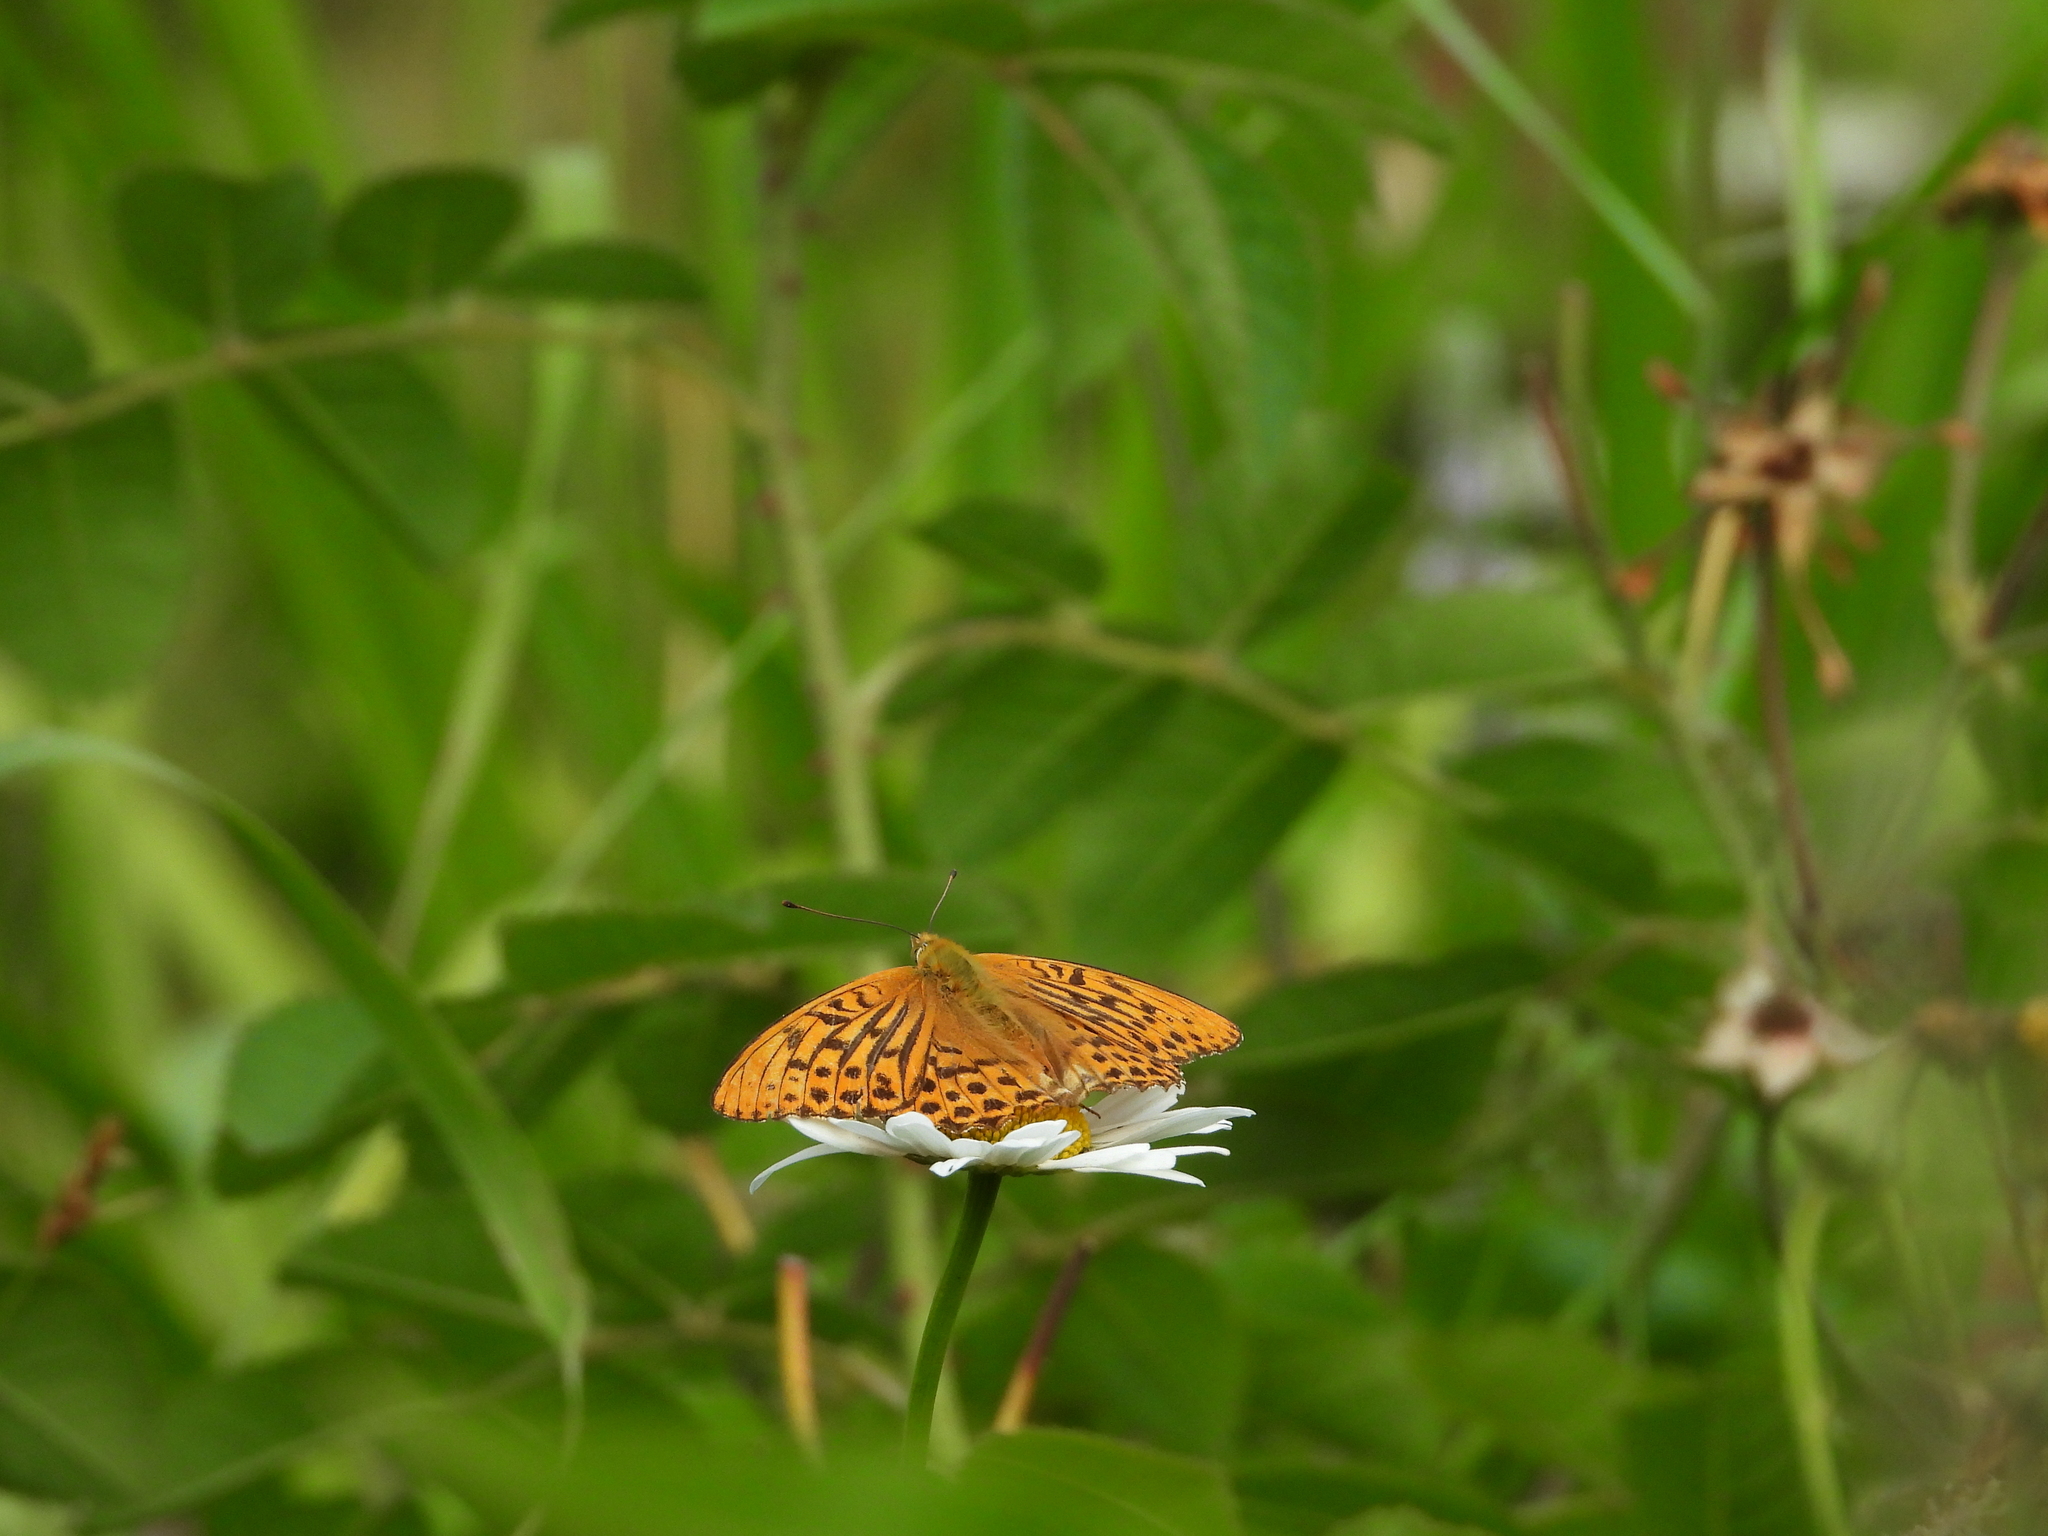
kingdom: Animalia
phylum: Arthropoda
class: Insecta
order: Lepidoptera
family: Nymphalidae
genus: Argynnis
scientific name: Argynnis paphia
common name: Silver-washed fritillary
